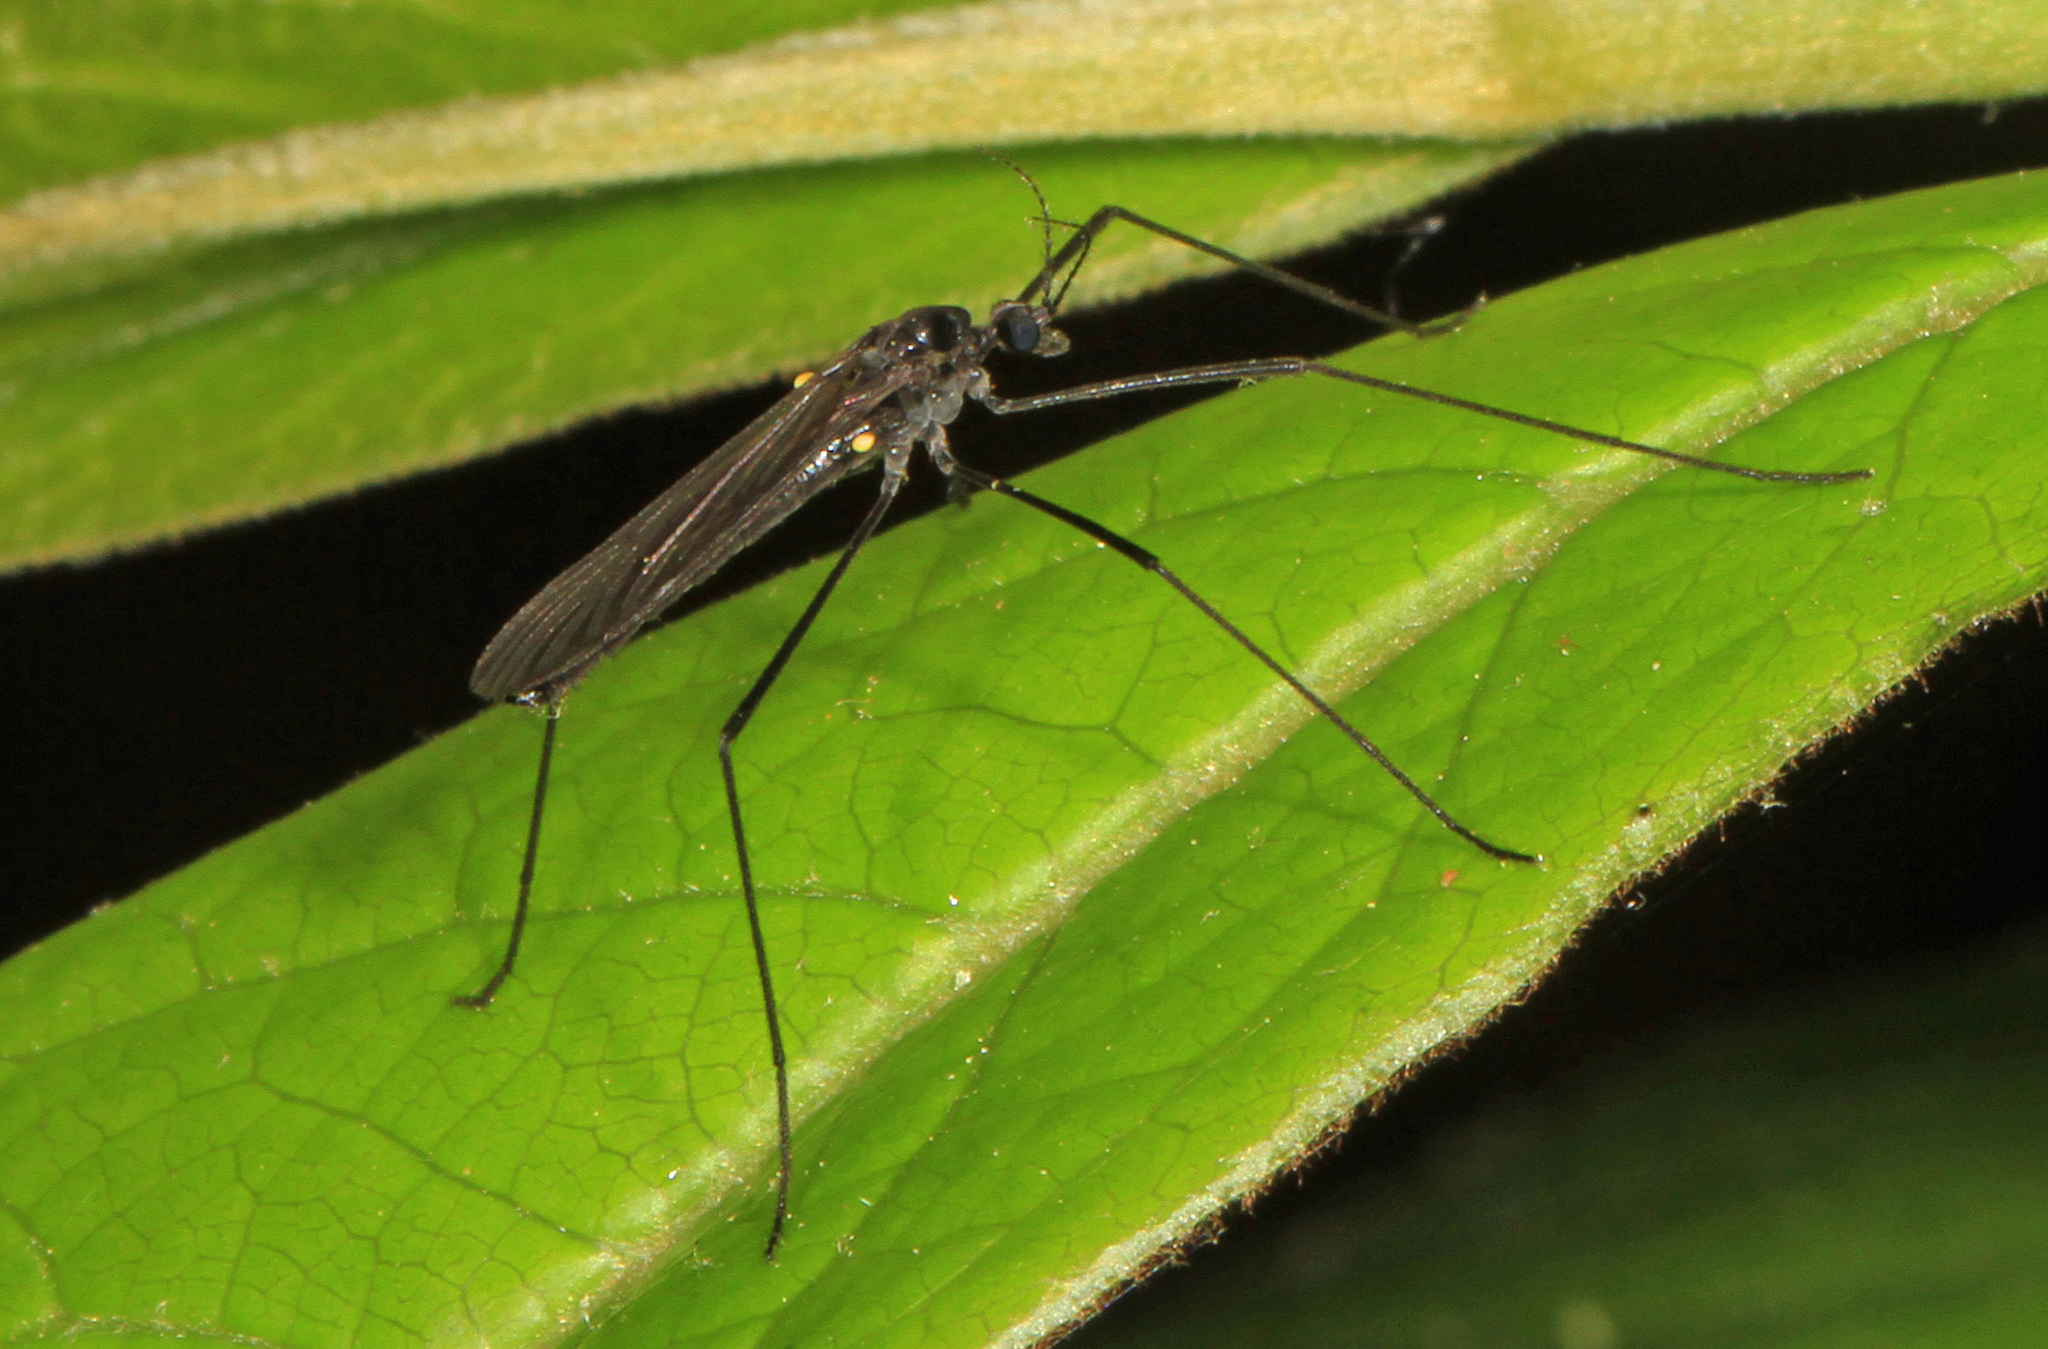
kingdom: Animalia
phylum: Arthropoda
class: Insecta
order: Diptera
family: Limoniidae
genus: Gnophomyia
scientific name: Gnophomyia tristissima
